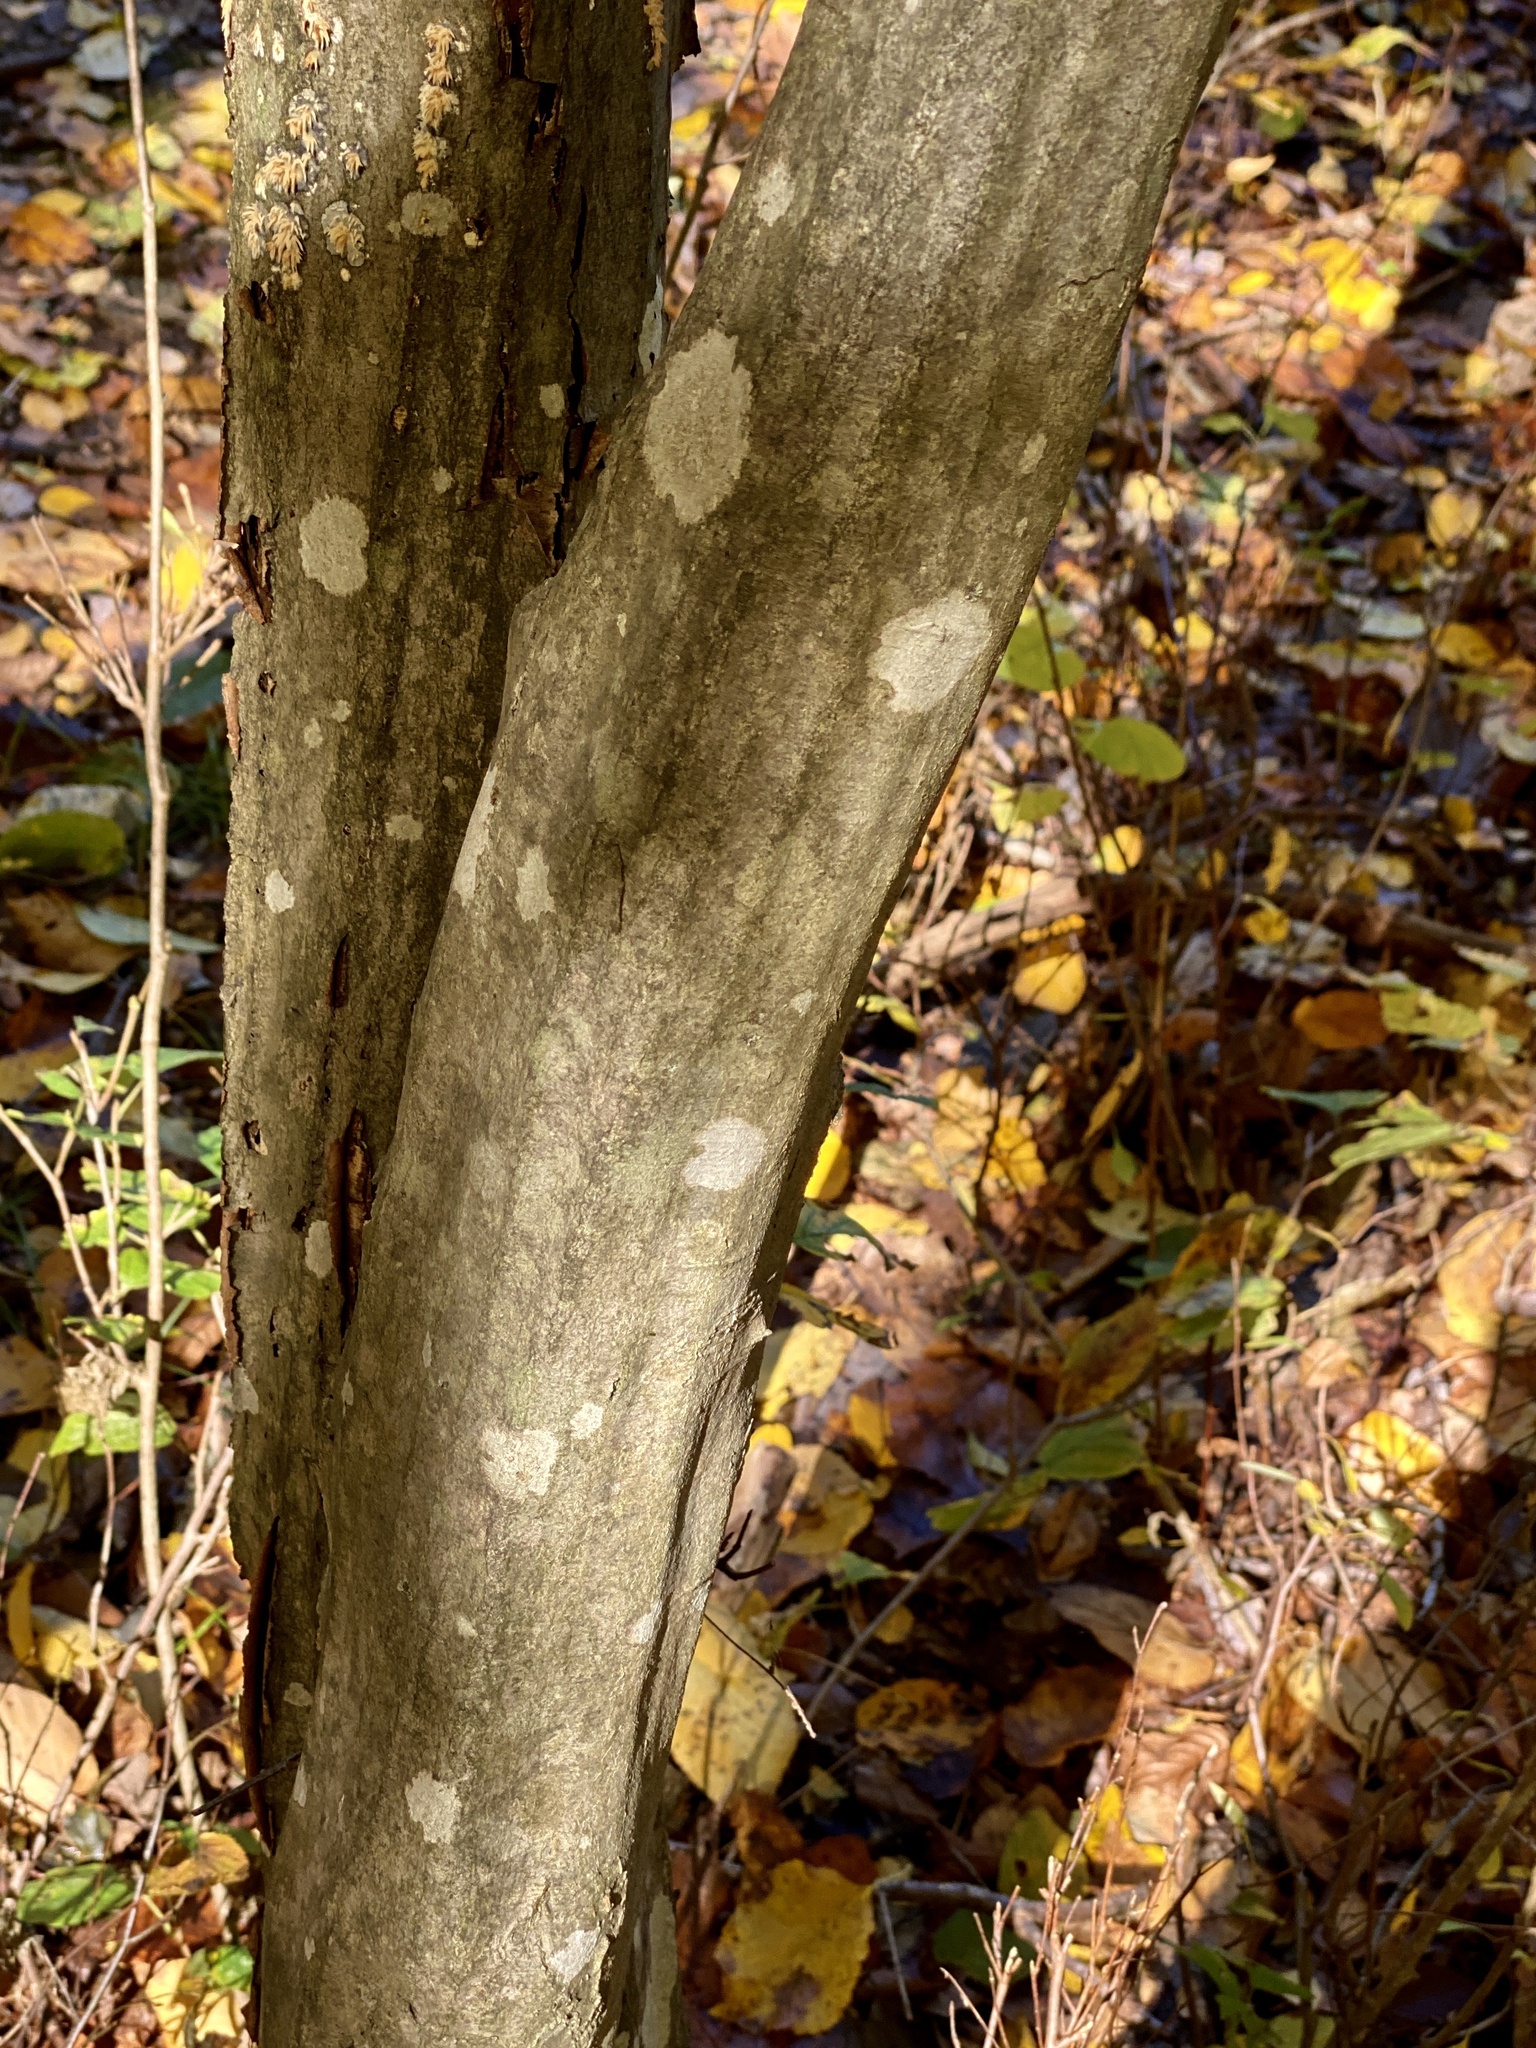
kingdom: Plantae
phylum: Tracheophyta
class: Magnoliopsida
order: Fagales
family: Betulaceae
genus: Carpinus
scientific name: Carpinus caroliniana
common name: American hornbeam
